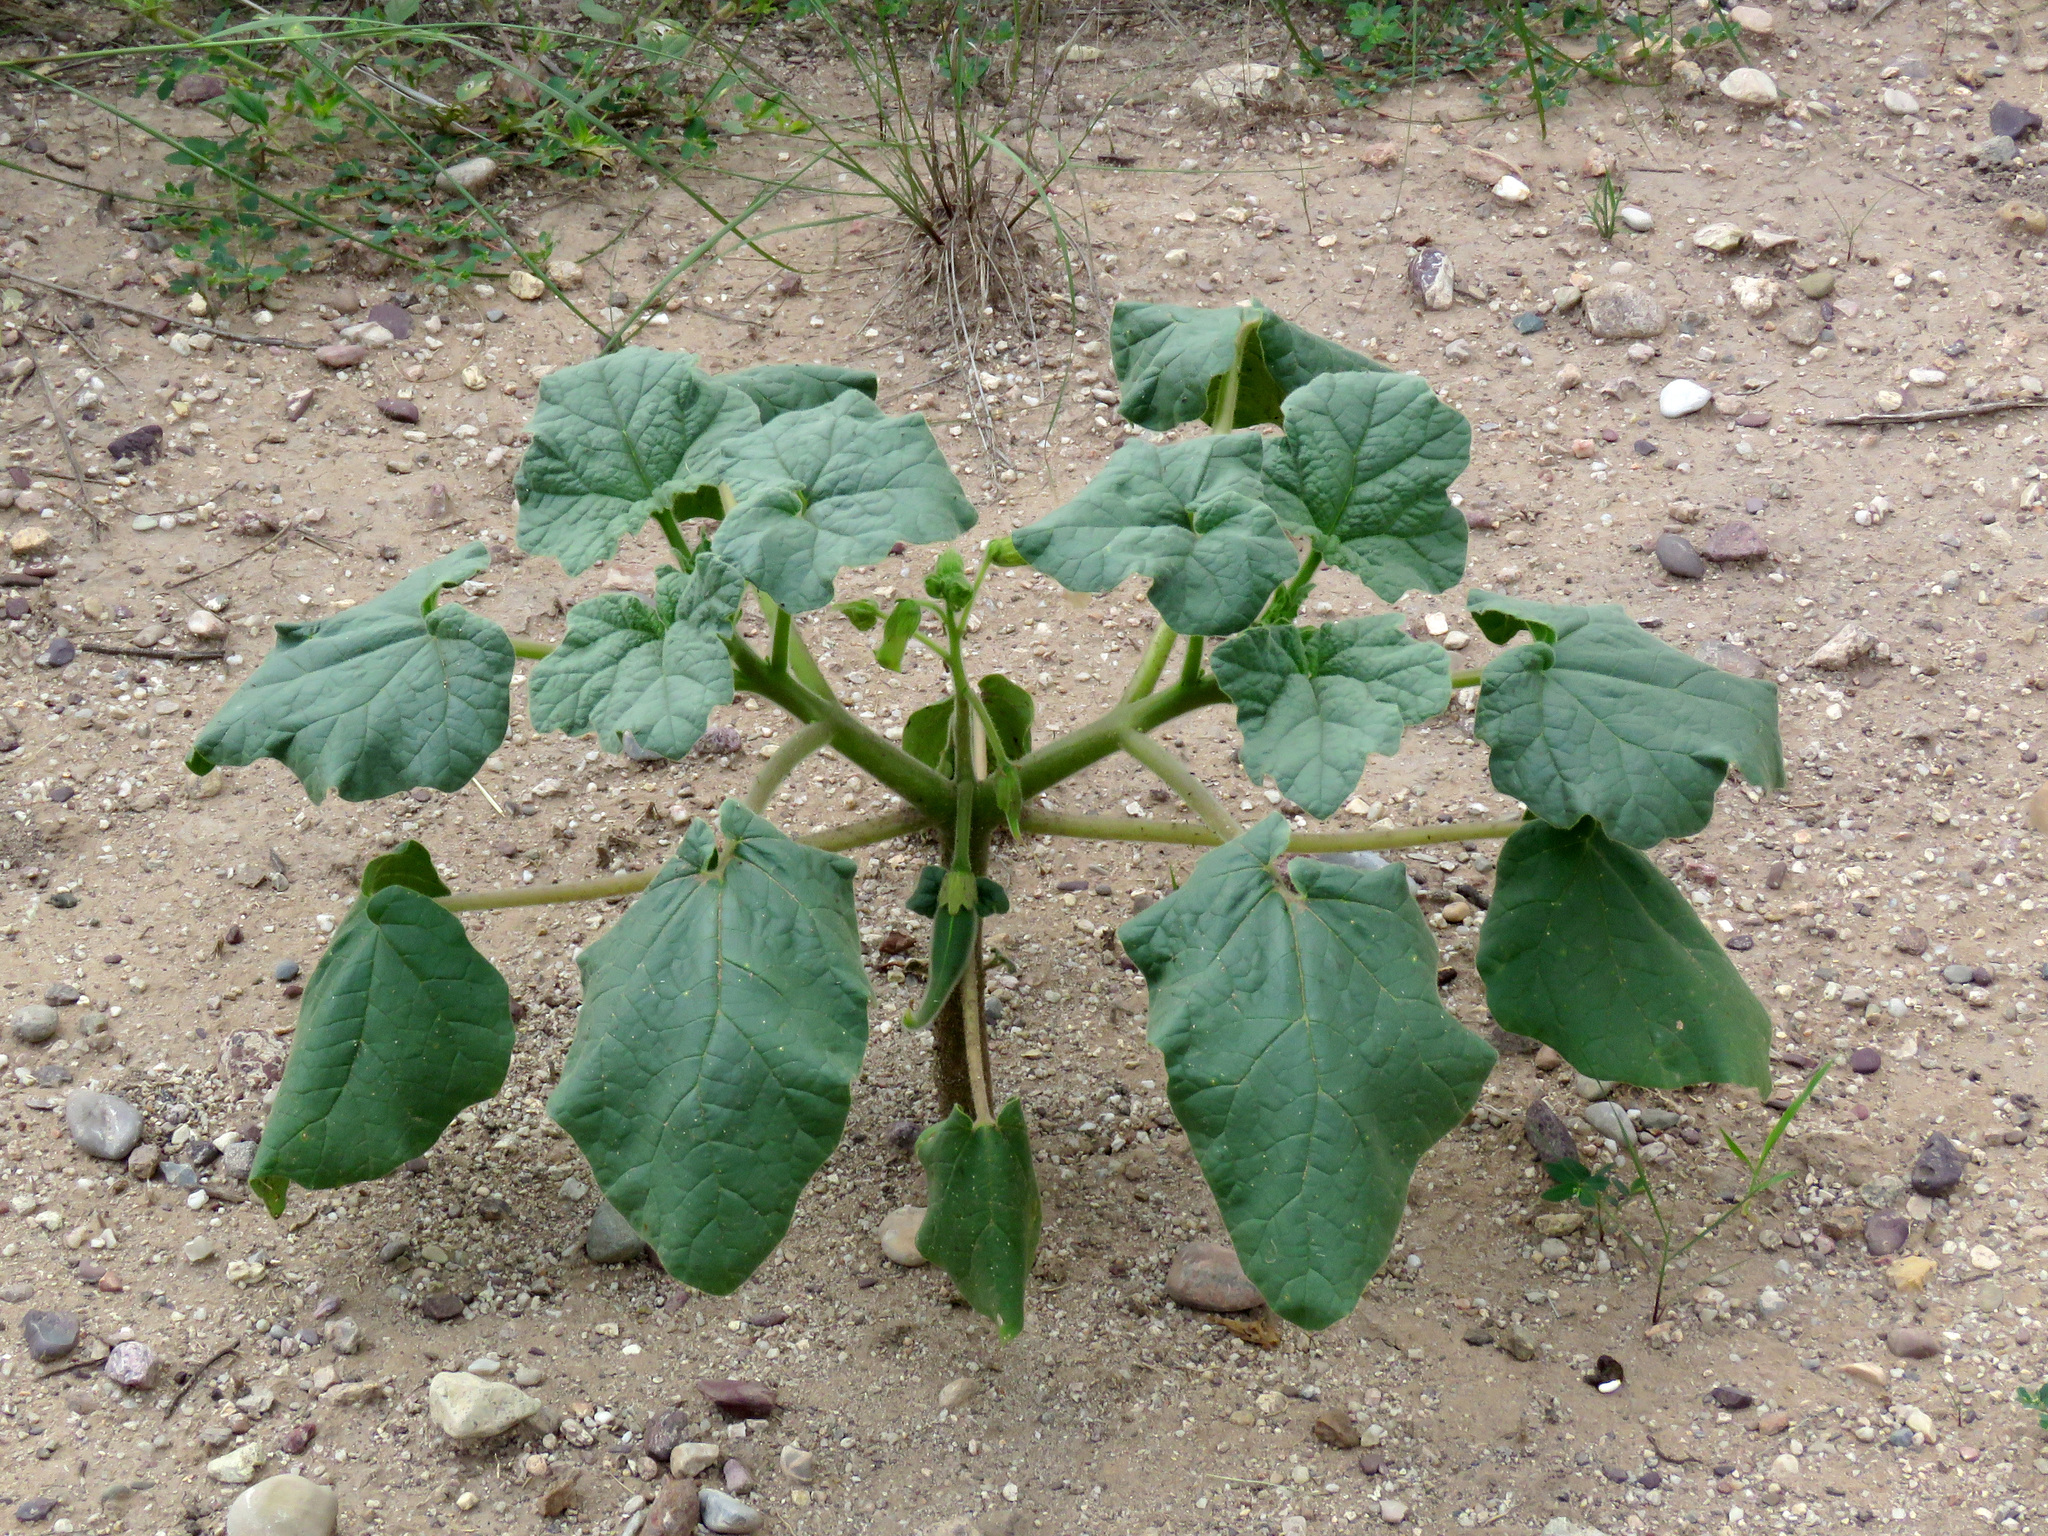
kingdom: Plantae
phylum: Tracheophyta
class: Magnoliopsida
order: Lamiales
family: Martyniaceae
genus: Proboscidea
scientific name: Proboscidea parviflora
